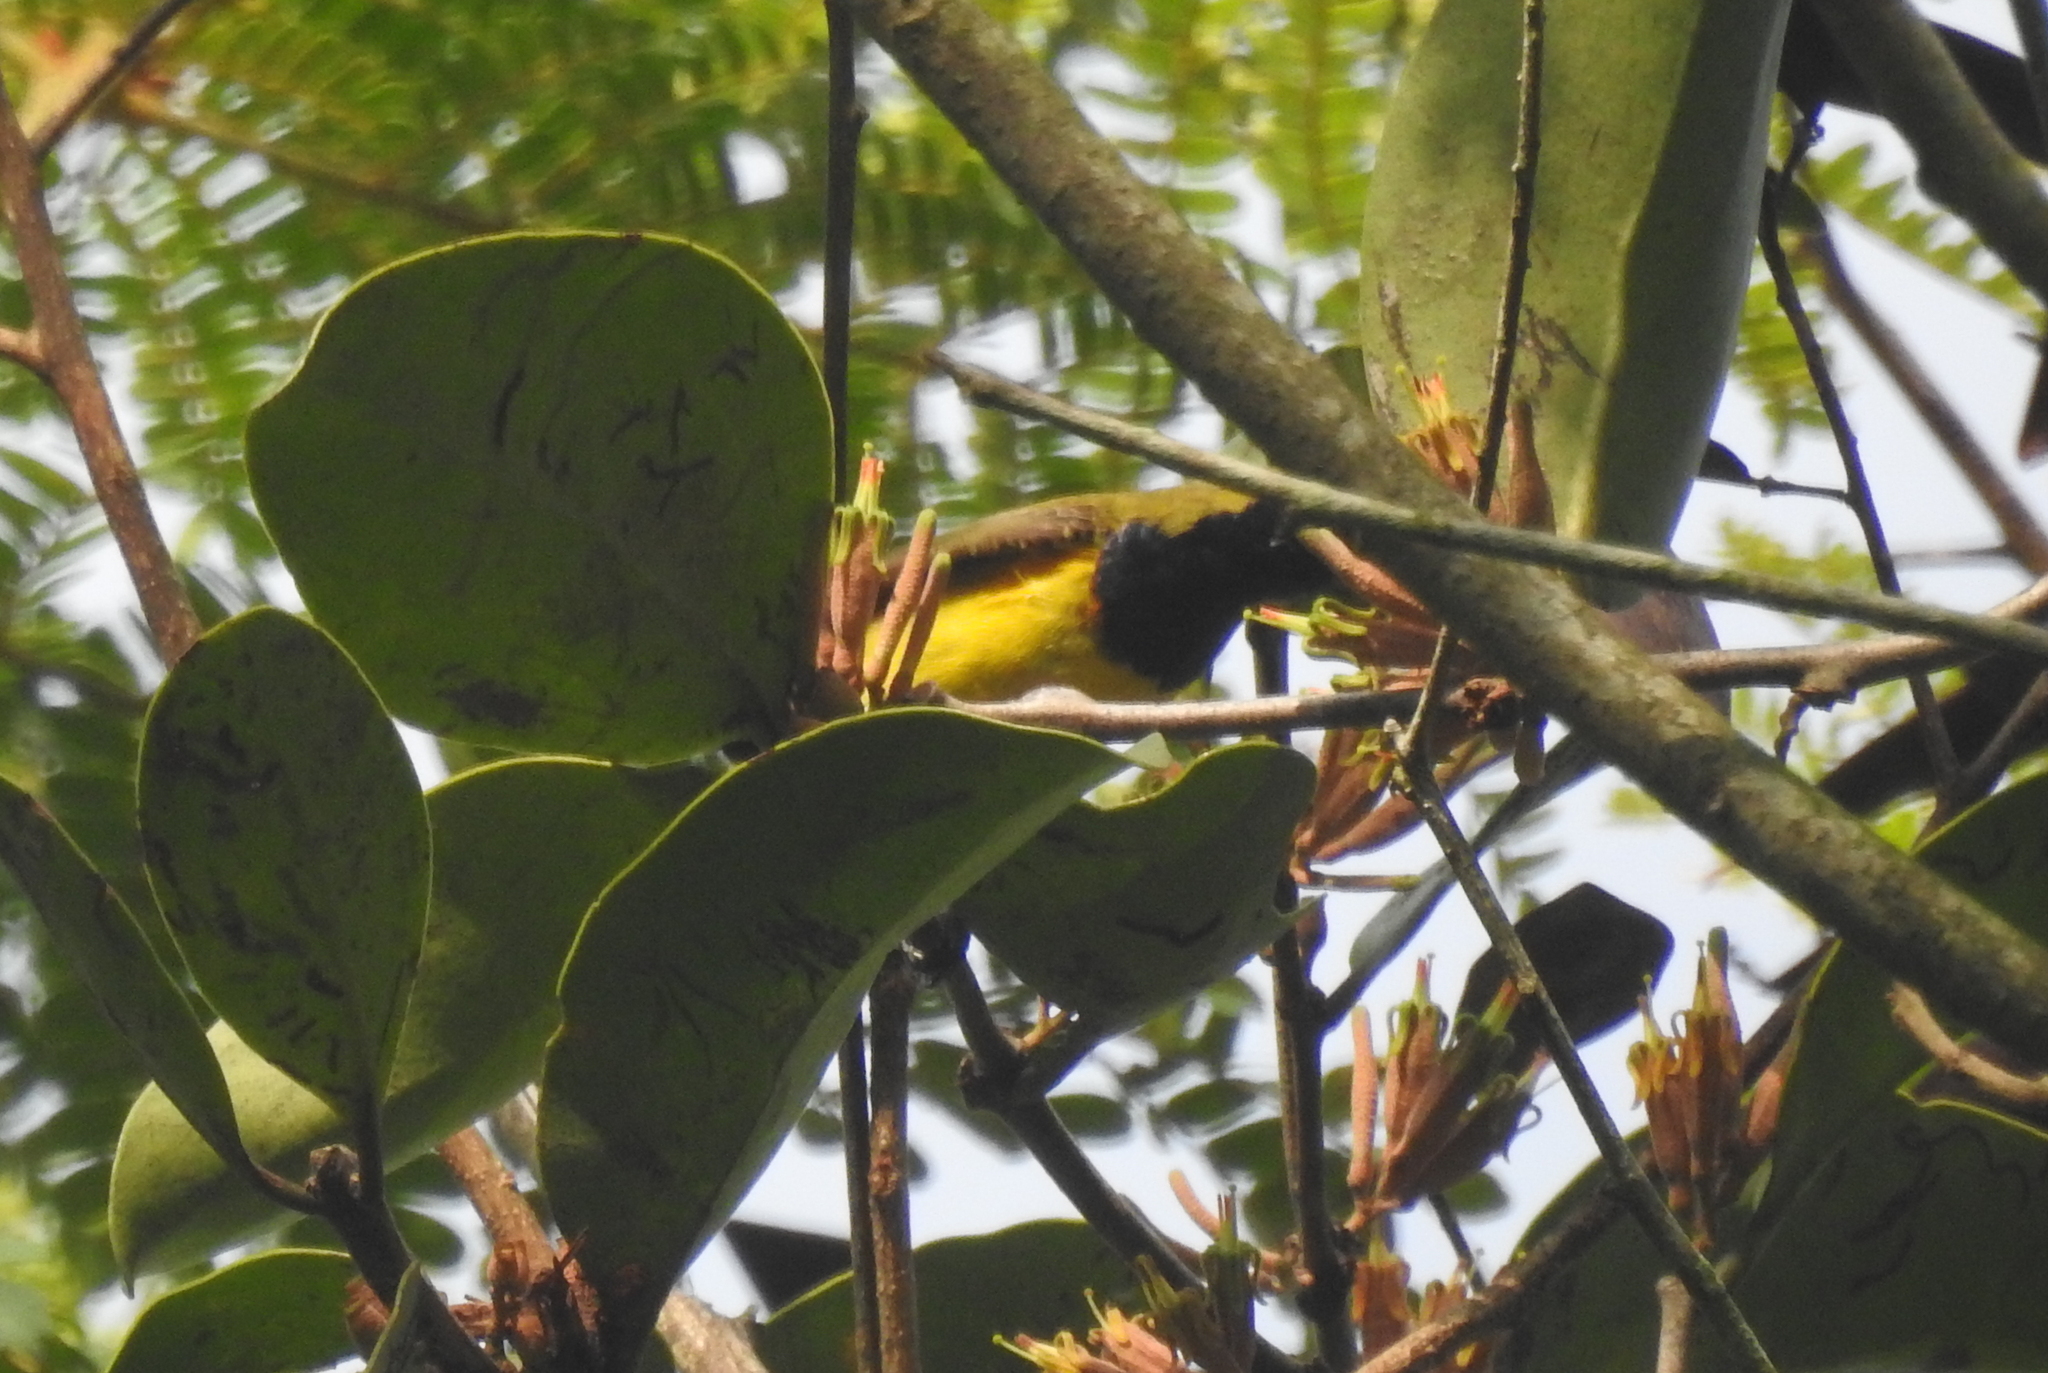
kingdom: Animalia
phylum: Chordata
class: Aves
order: Passeriformes
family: Nectariniidae
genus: Cinnyris
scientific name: Cinnyris
